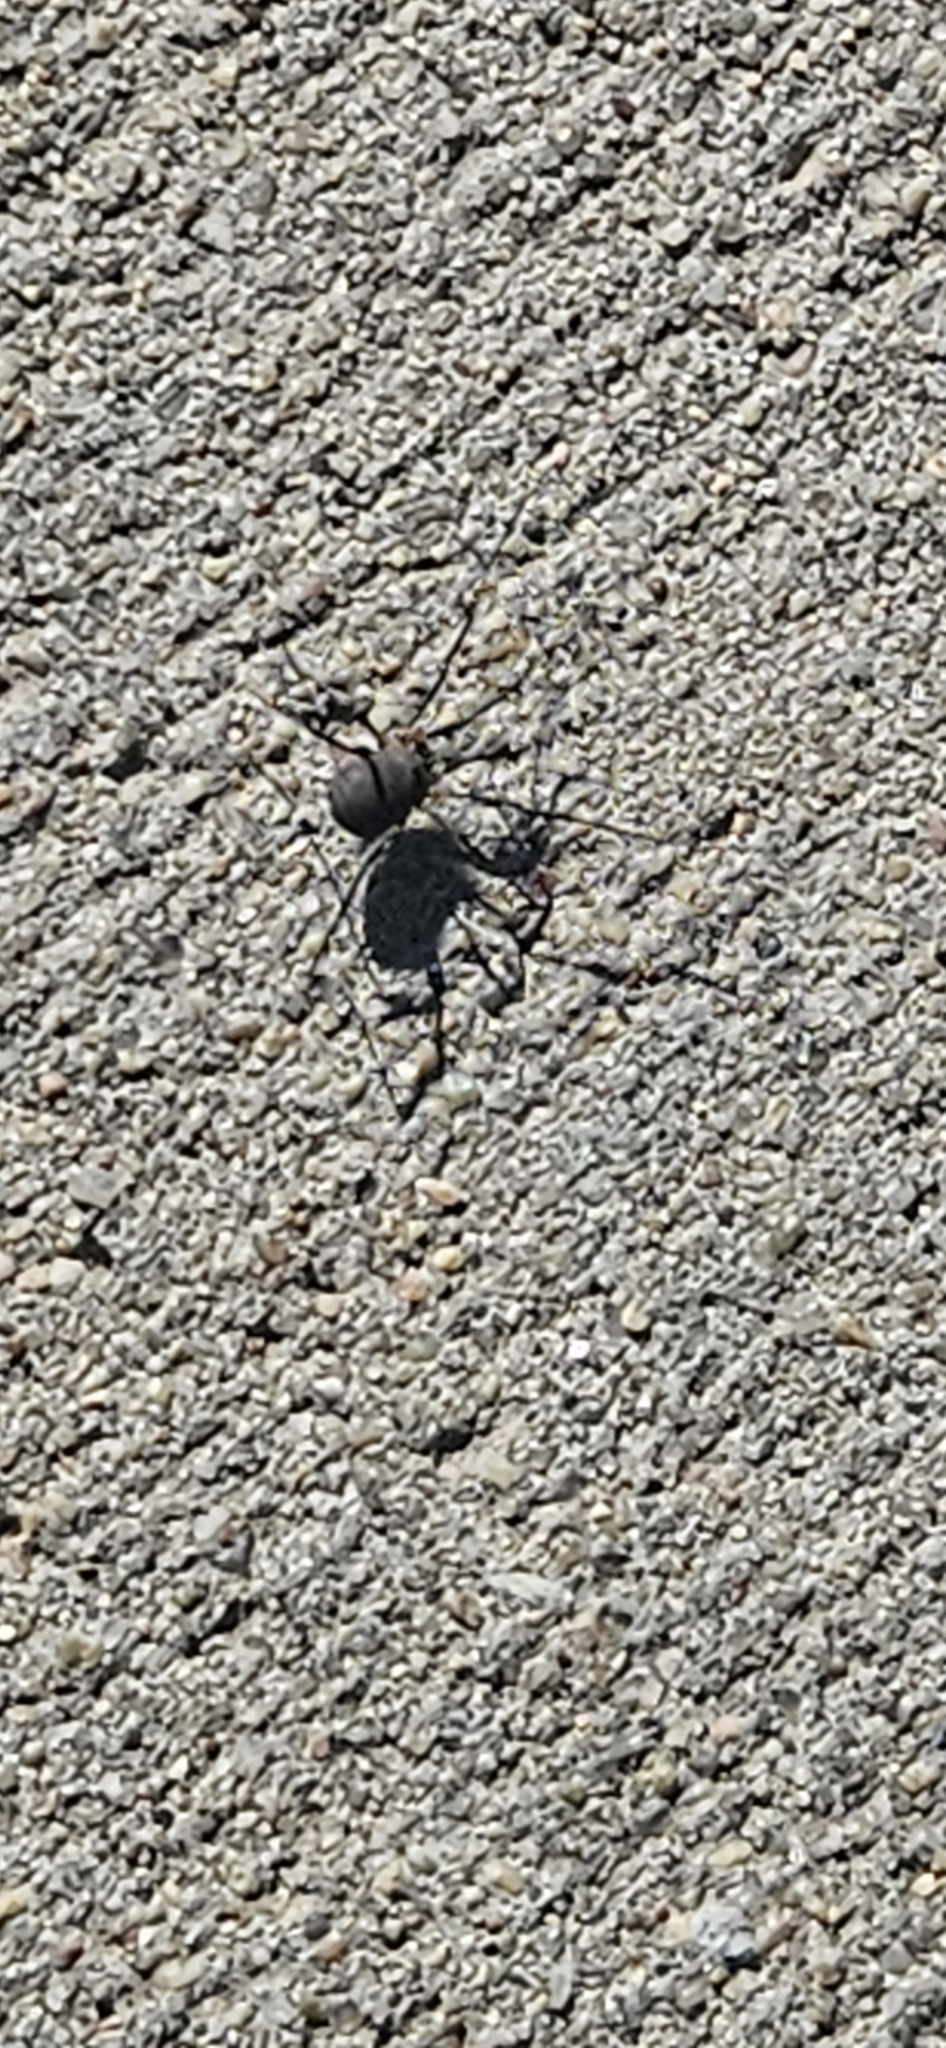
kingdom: Animalia
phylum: Arthropoda
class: Arachnida
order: Opiliones
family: Sclerosomatidae
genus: Eumesosoma
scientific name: Eumesosoma roeweri
